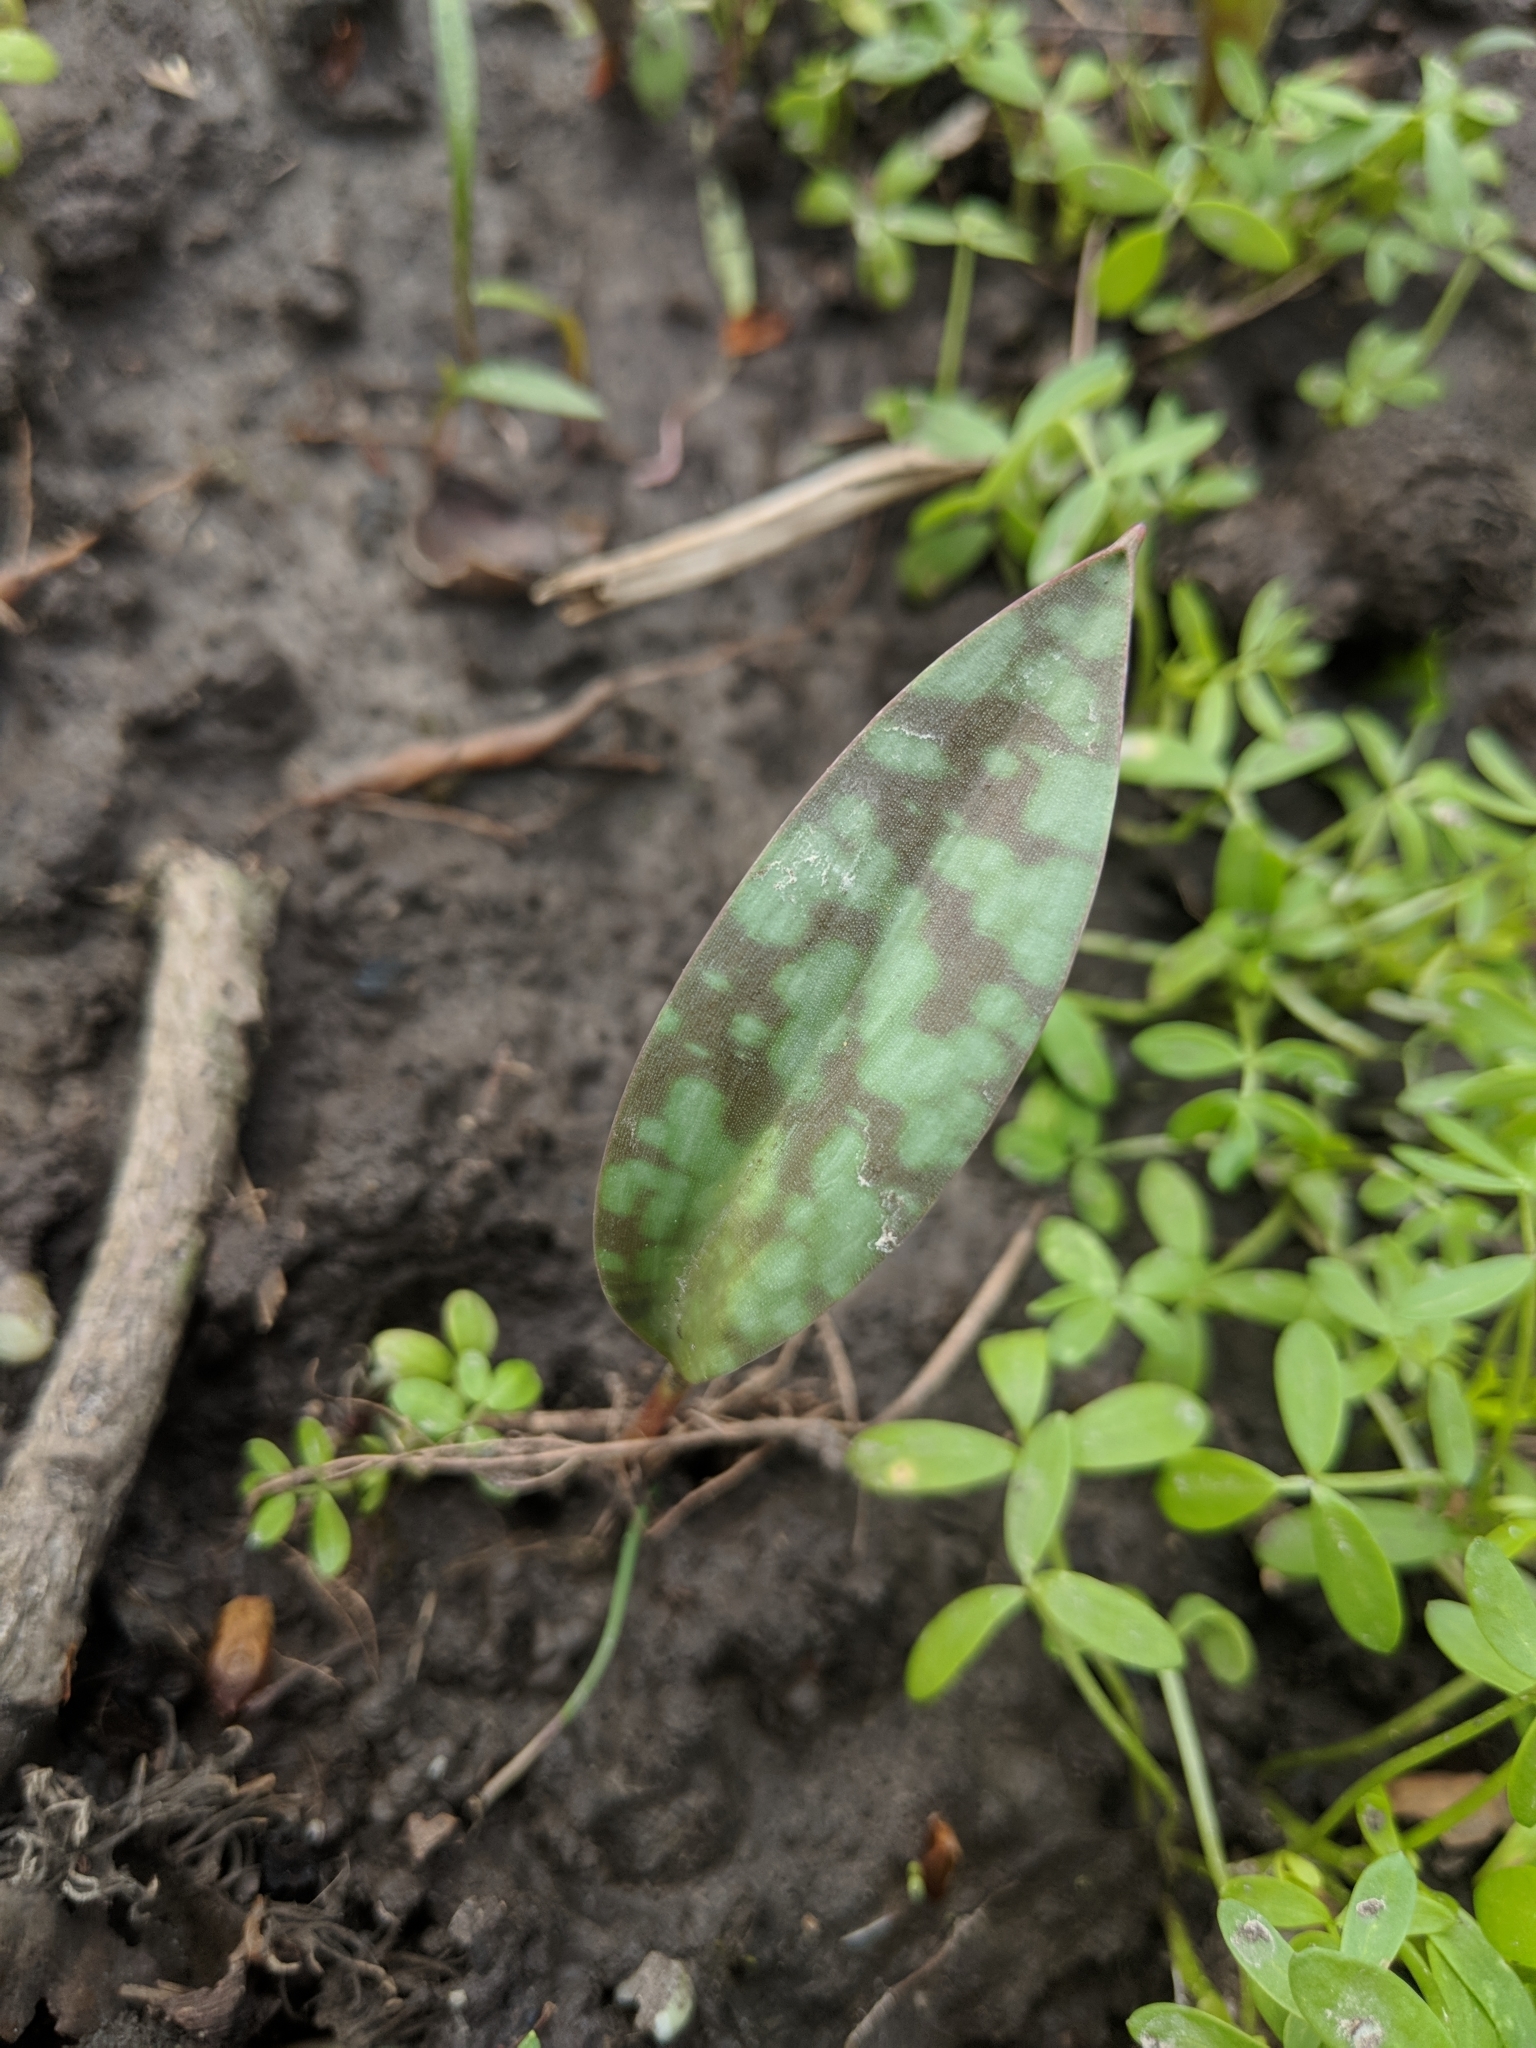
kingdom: Plantae
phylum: Tracheophyta
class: Liliopsida
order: Liliales
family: Liliaceae
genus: Erythronium
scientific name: Erythronium albidum
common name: White trout-lily
